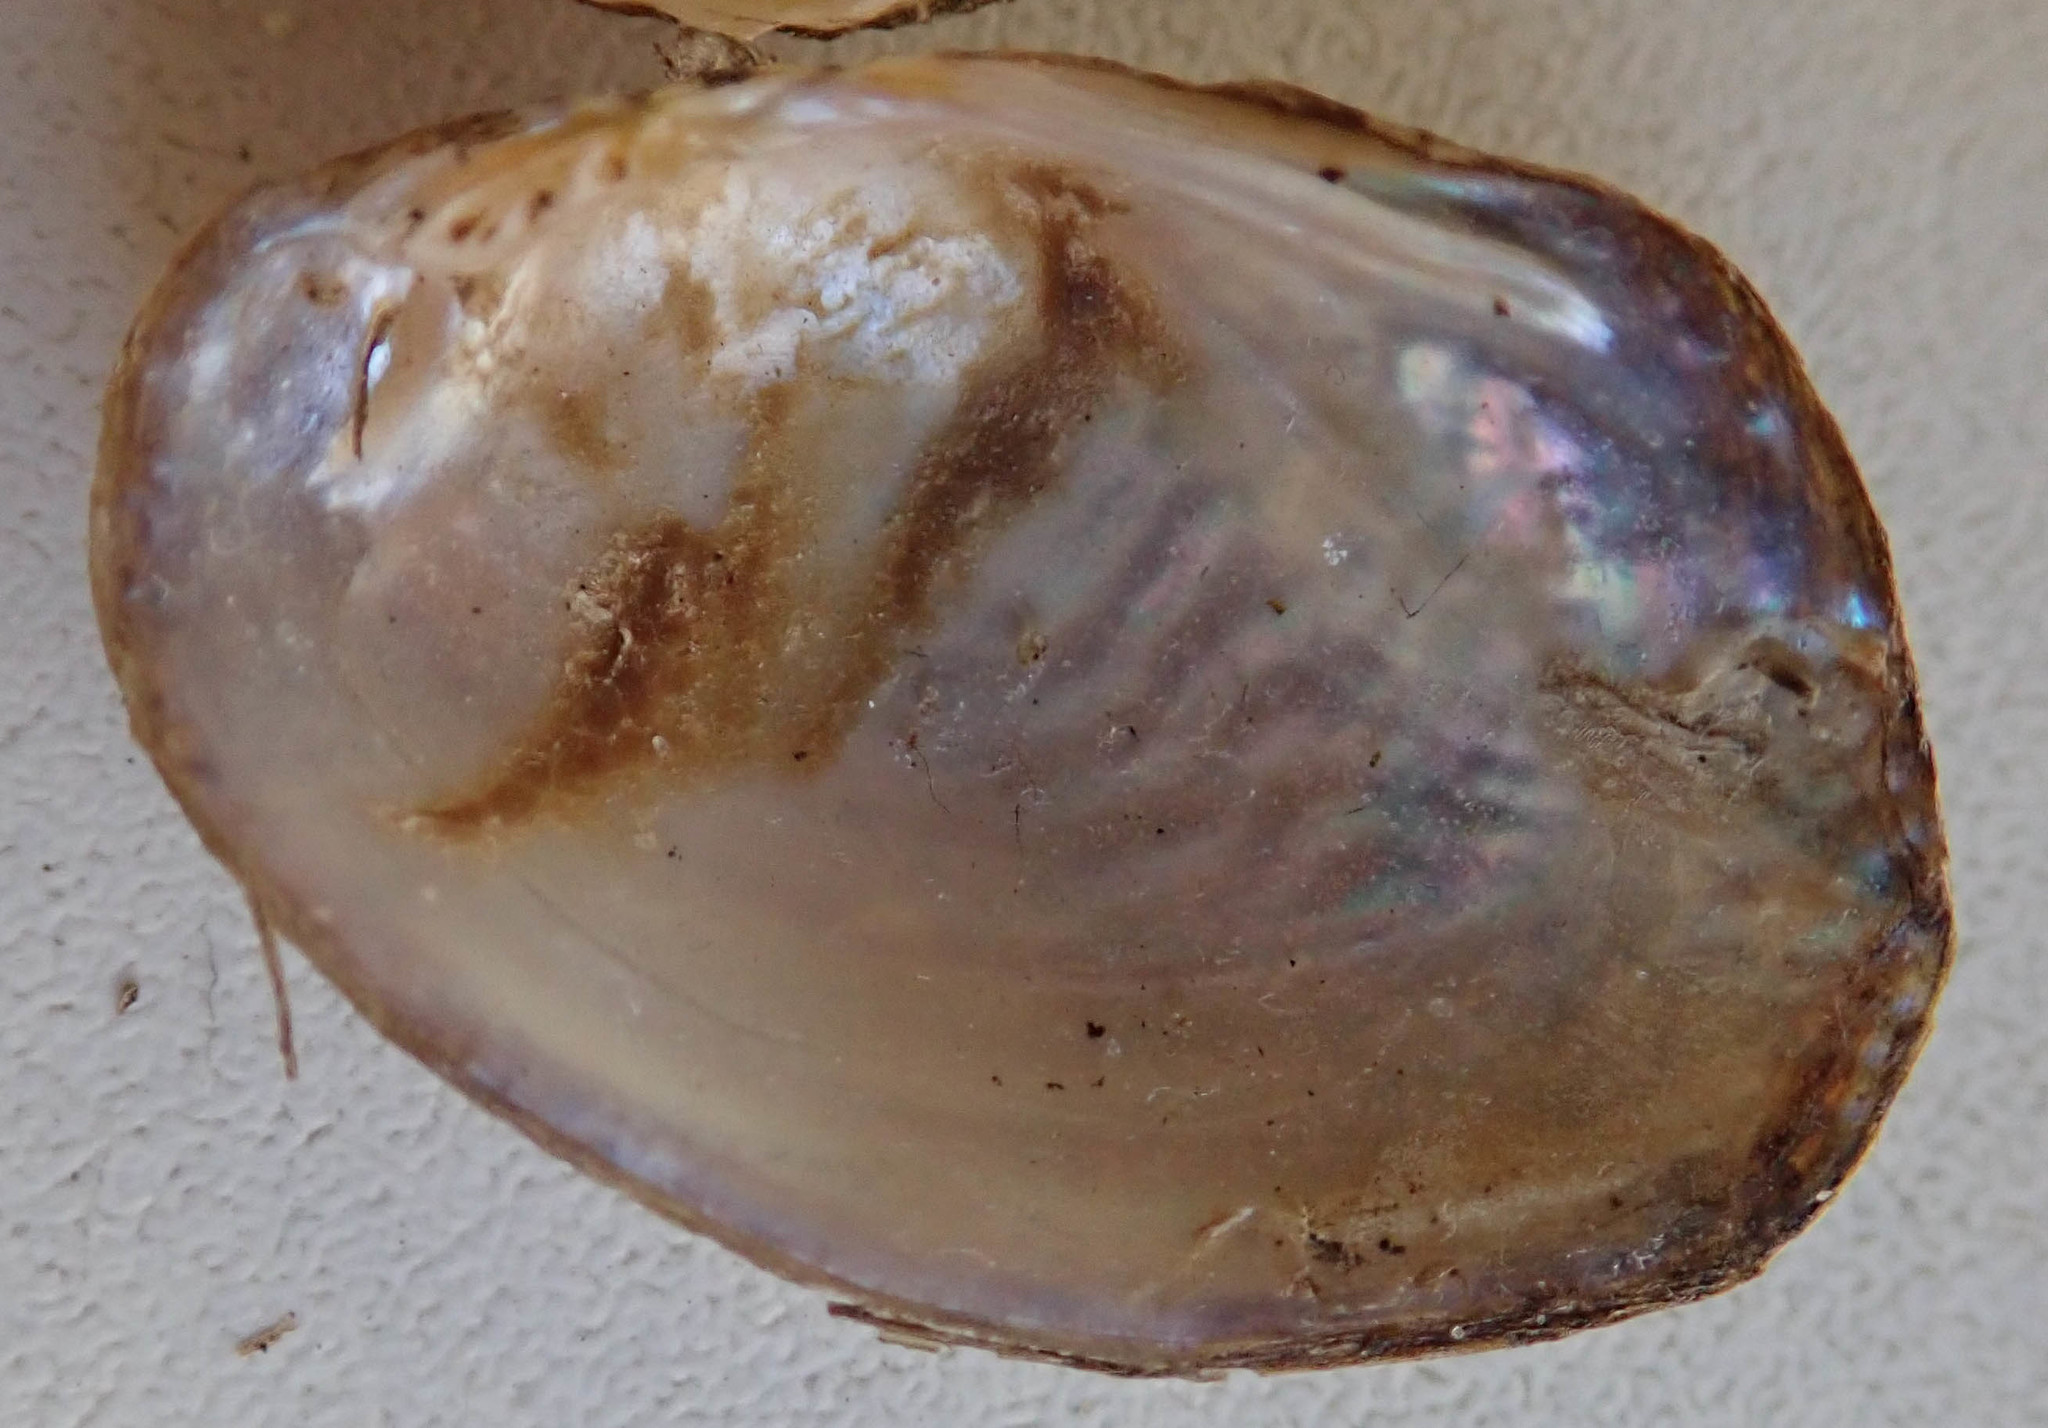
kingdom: Animalia
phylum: Mollusca
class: Bivalvia
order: Unionida
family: Unionidae
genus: Coelatura
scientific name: Coelatura kunenensis
